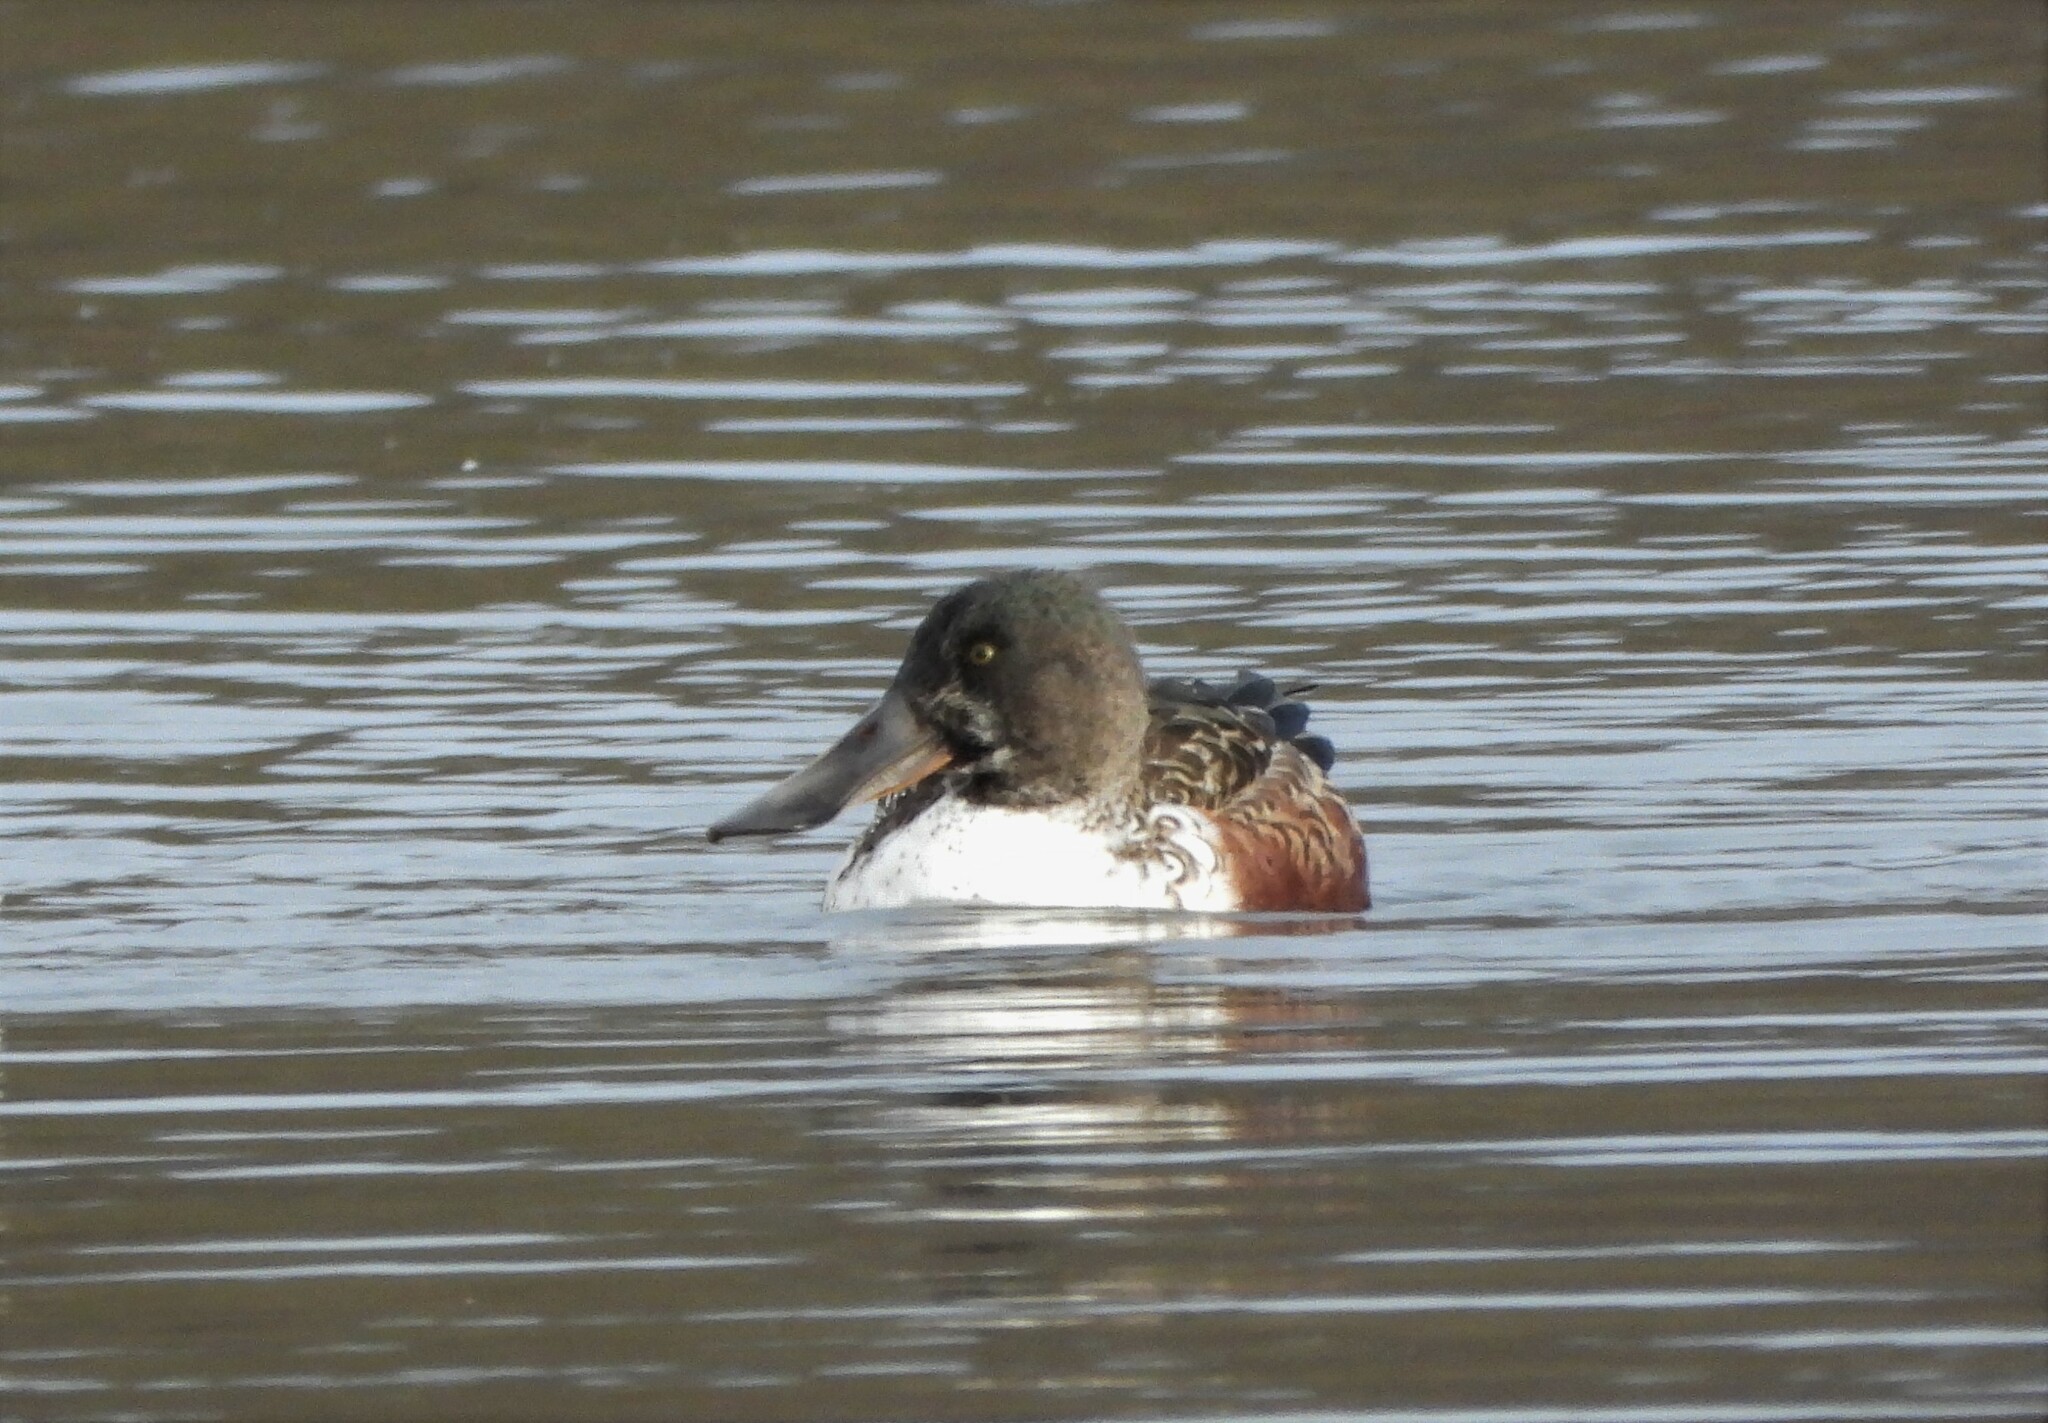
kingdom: Animalia
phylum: Chordata
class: Aves
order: Anseriformes
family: Anatidae
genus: Spatula
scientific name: Spatula clypeata
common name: Northern shoveler
